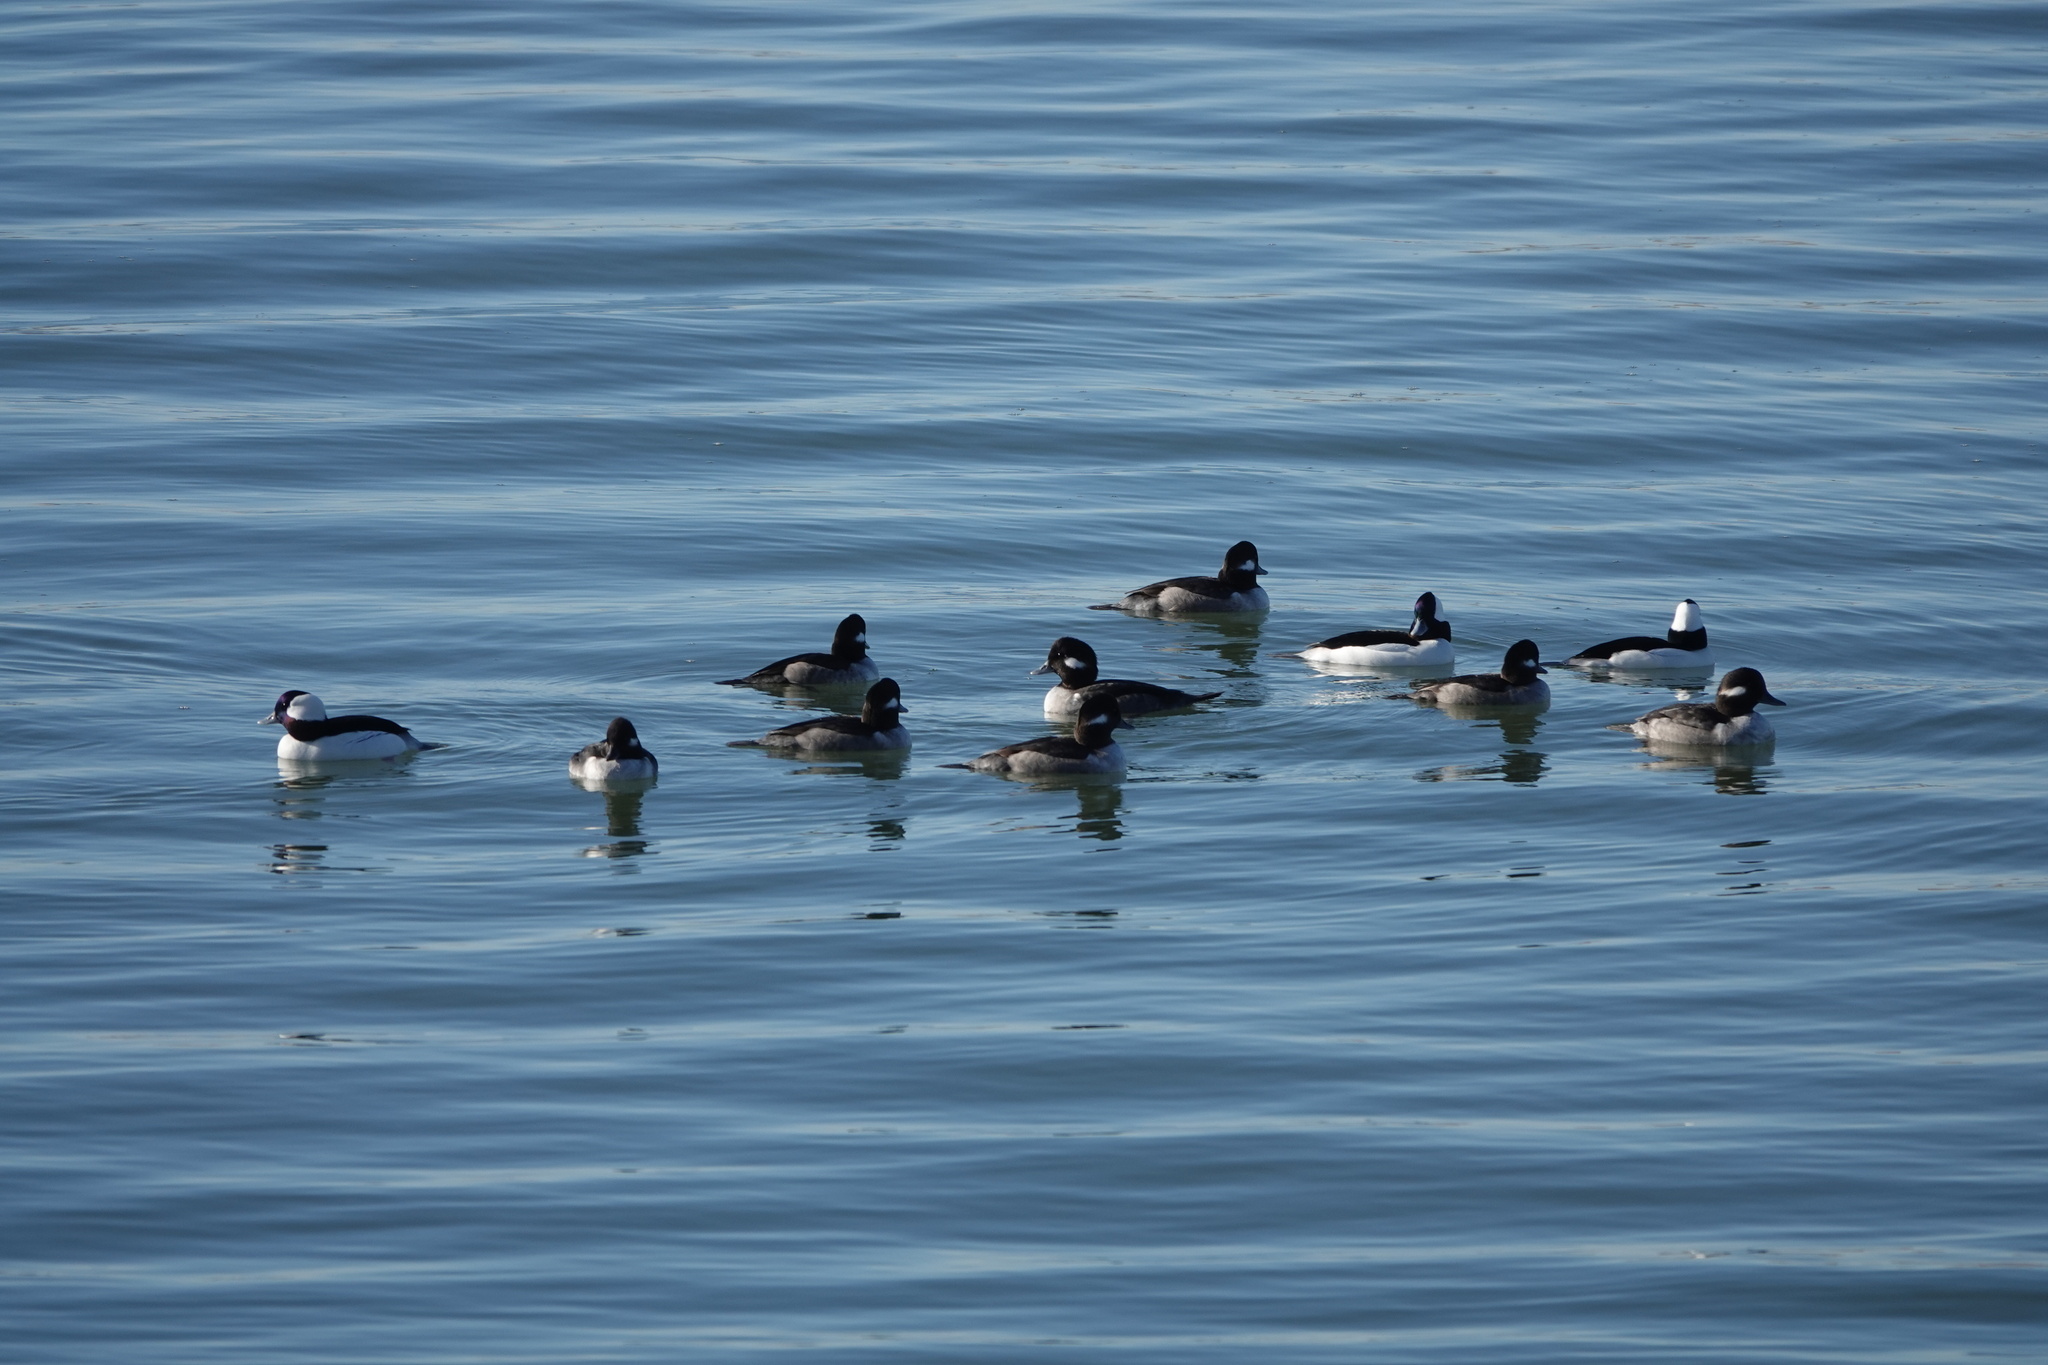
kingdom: Animalia
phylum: Chordata
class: Aves
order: Anseriformes
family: Anatidae
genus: Bucephala
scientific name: Bucephala albeola
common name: Bufflehead
